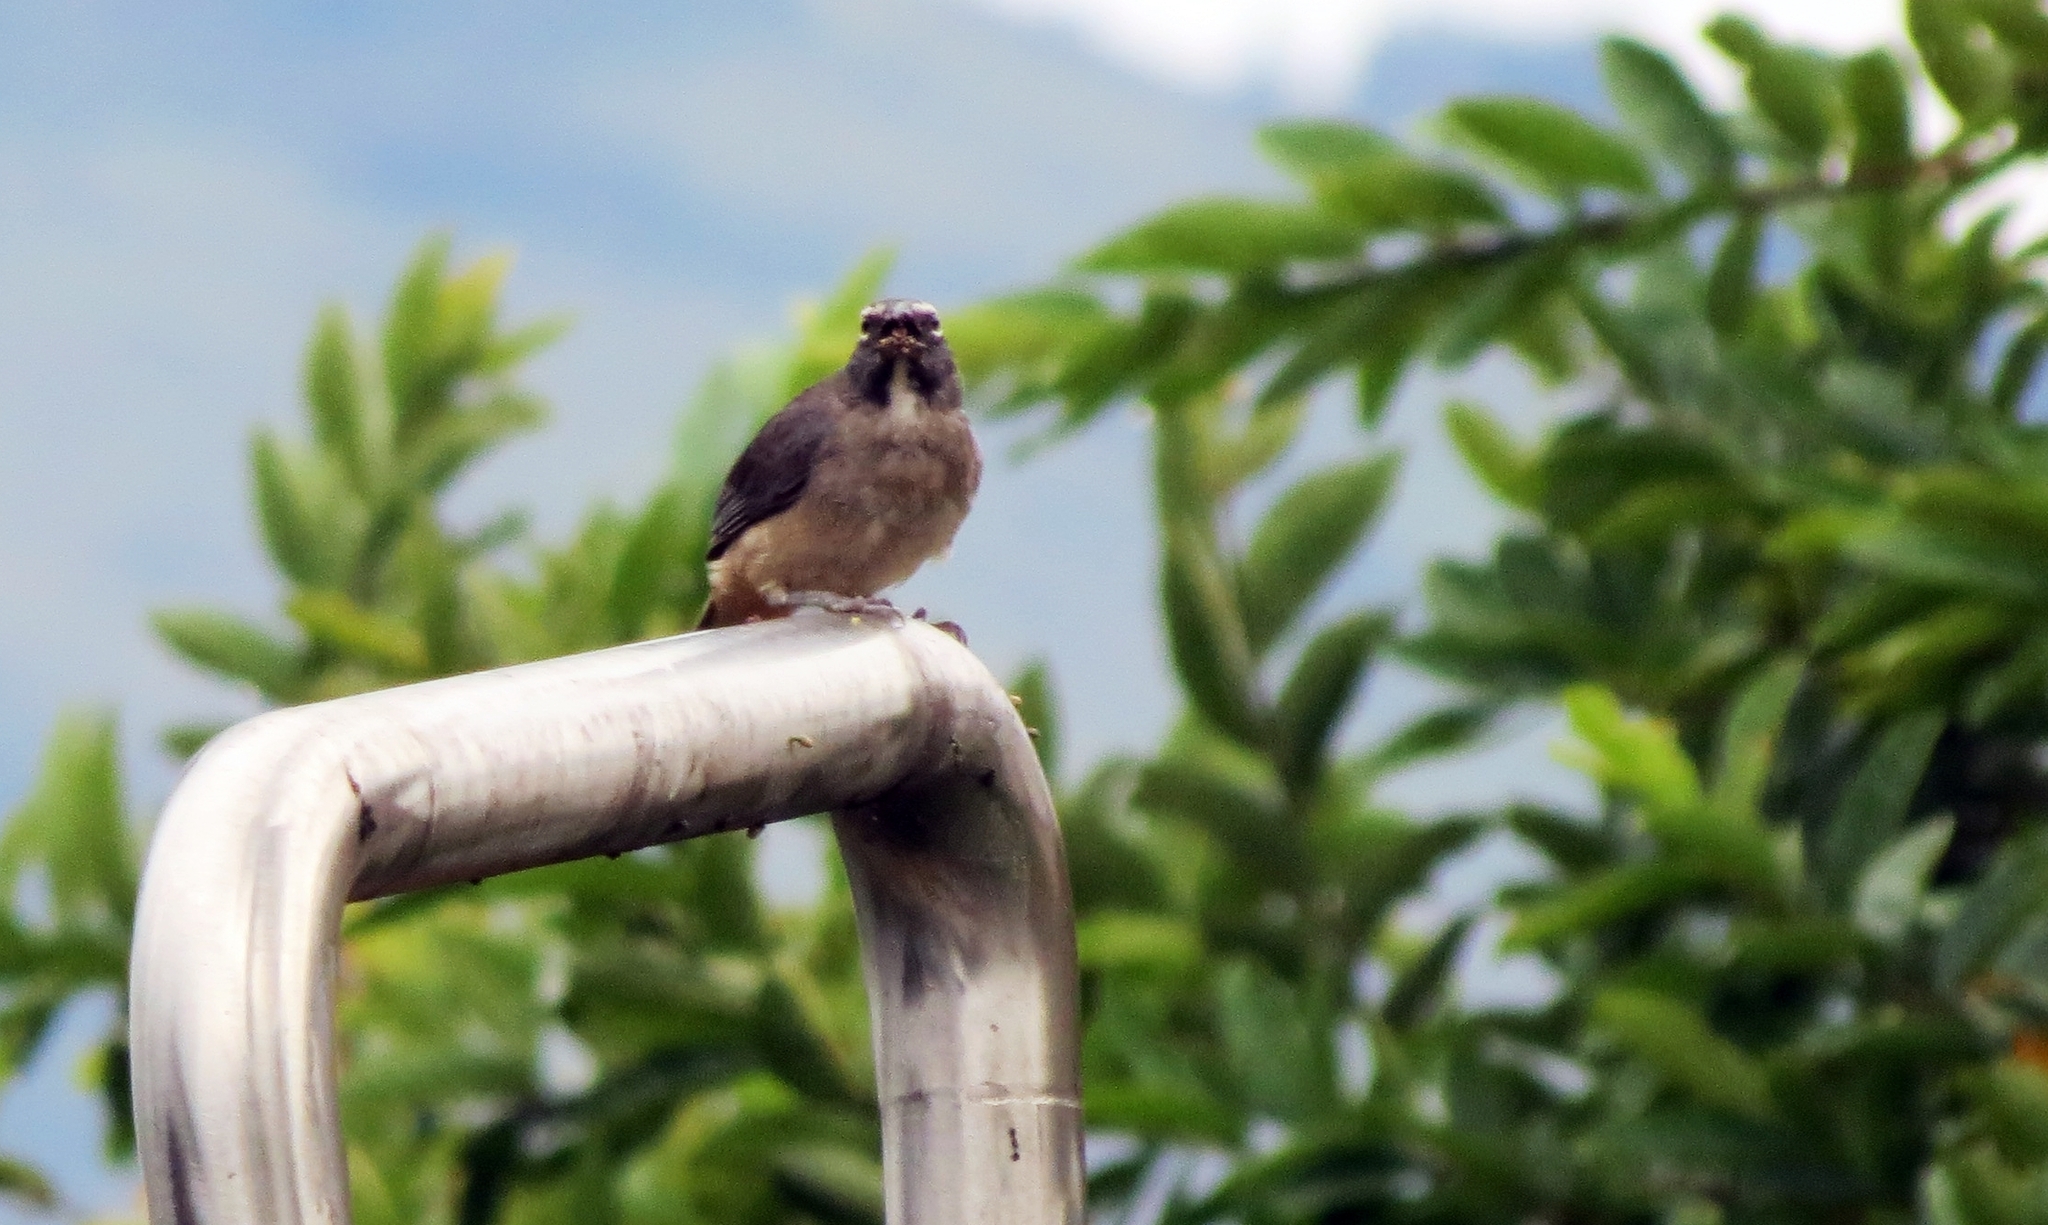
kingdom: Animalia
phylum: Chordata
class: Aves
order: Passeriformes
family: Thraupidae
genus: Saltator
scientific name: Saltator olivascens
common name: Caribbean grey saltator
